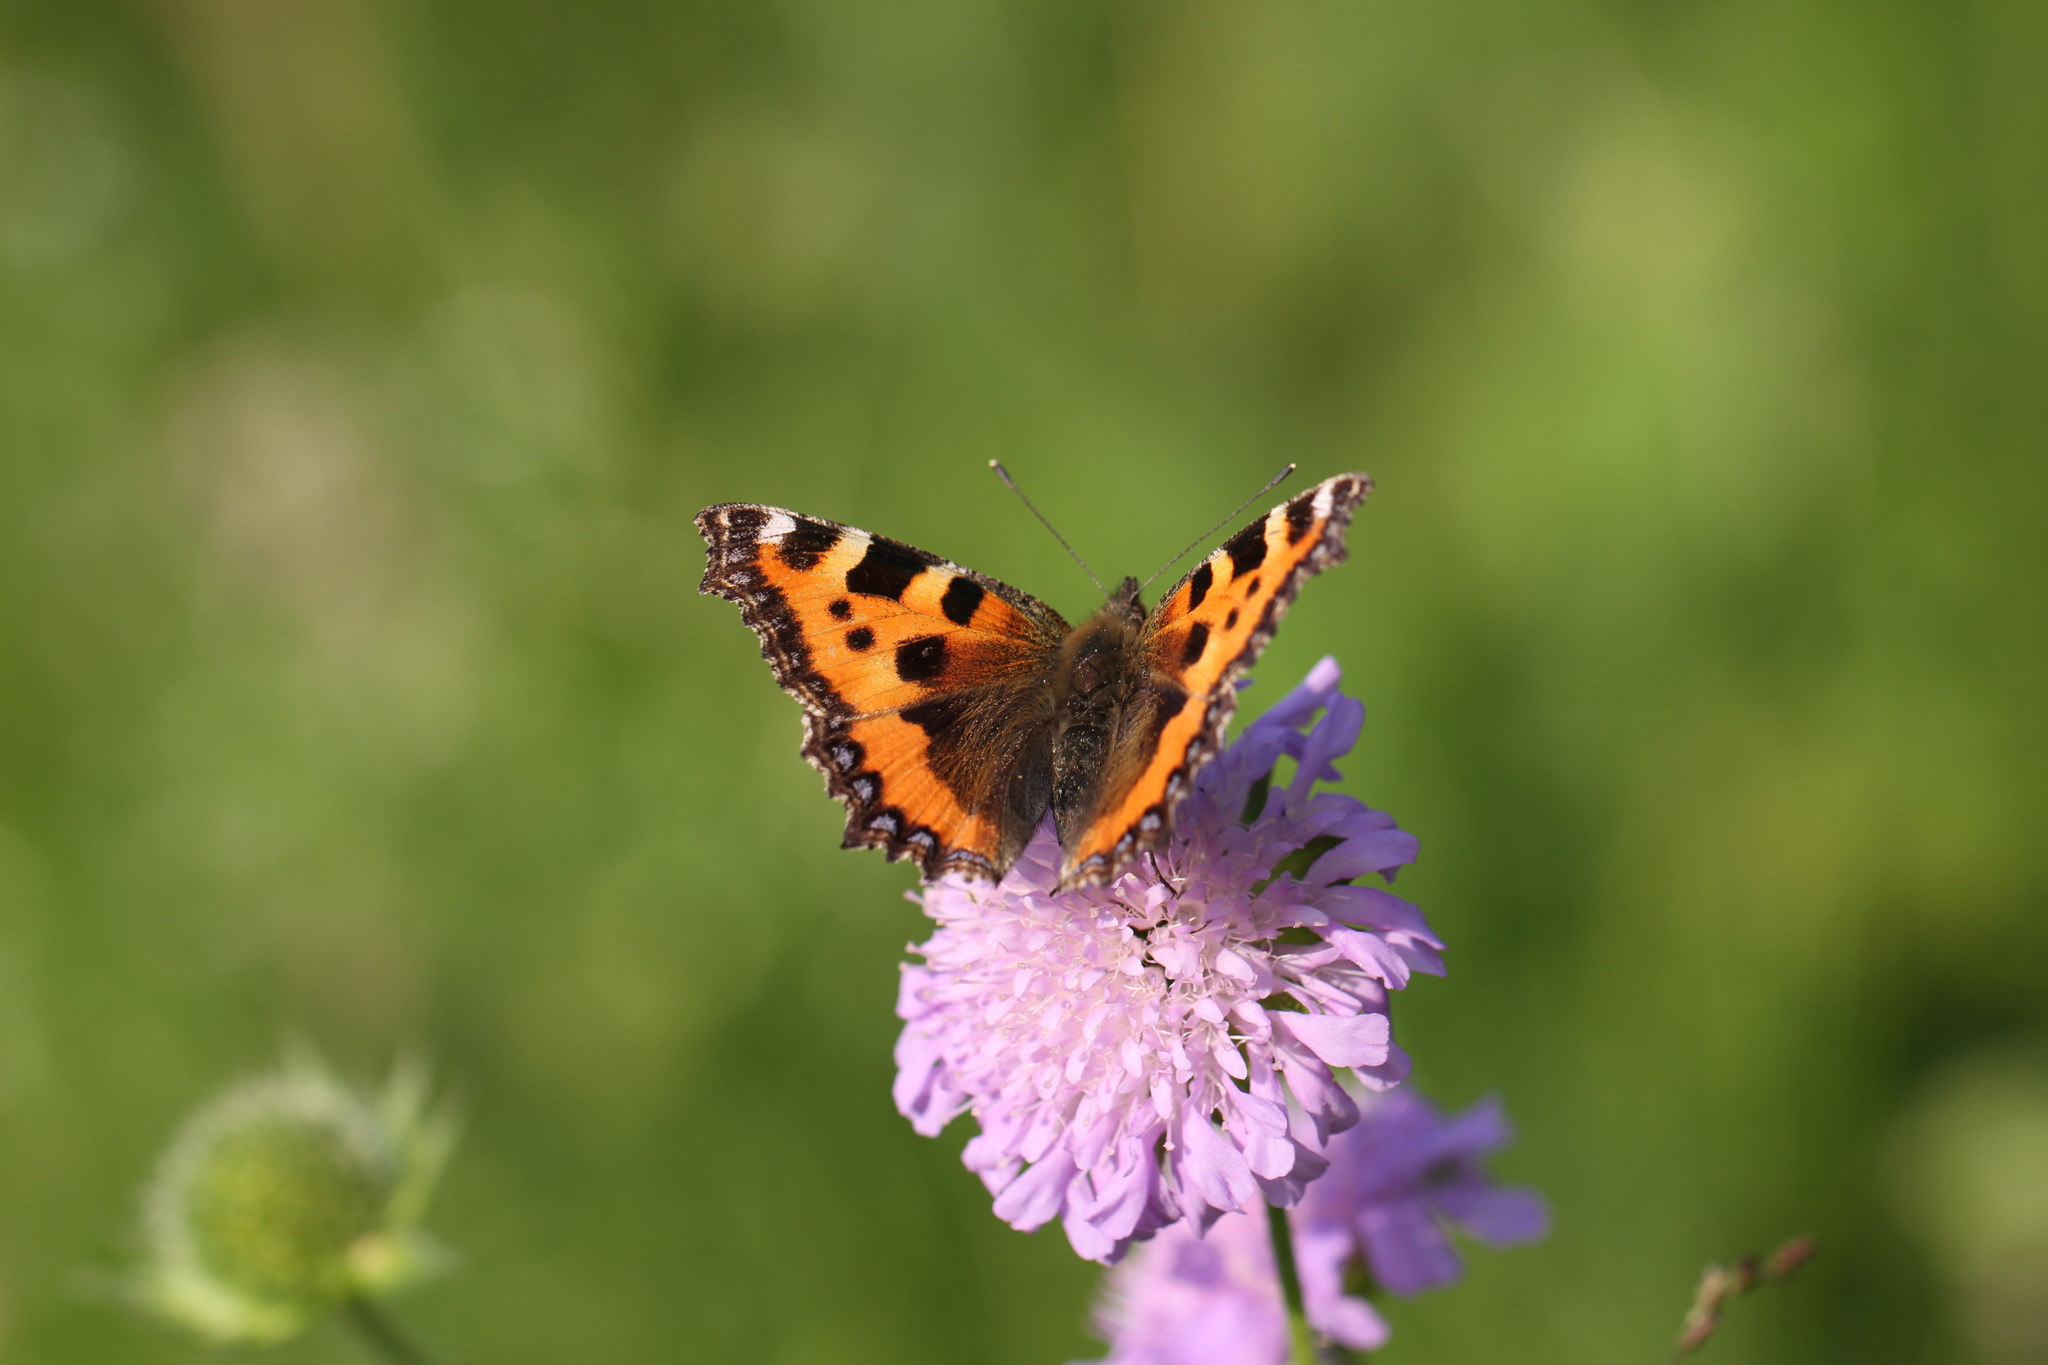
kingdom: Animalia
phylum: Arthropoda
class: Insecta
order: Lepidoptera
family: Nymphalidae
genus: Aglais
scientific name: Aglais urticae
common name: Small tortoiseshell
